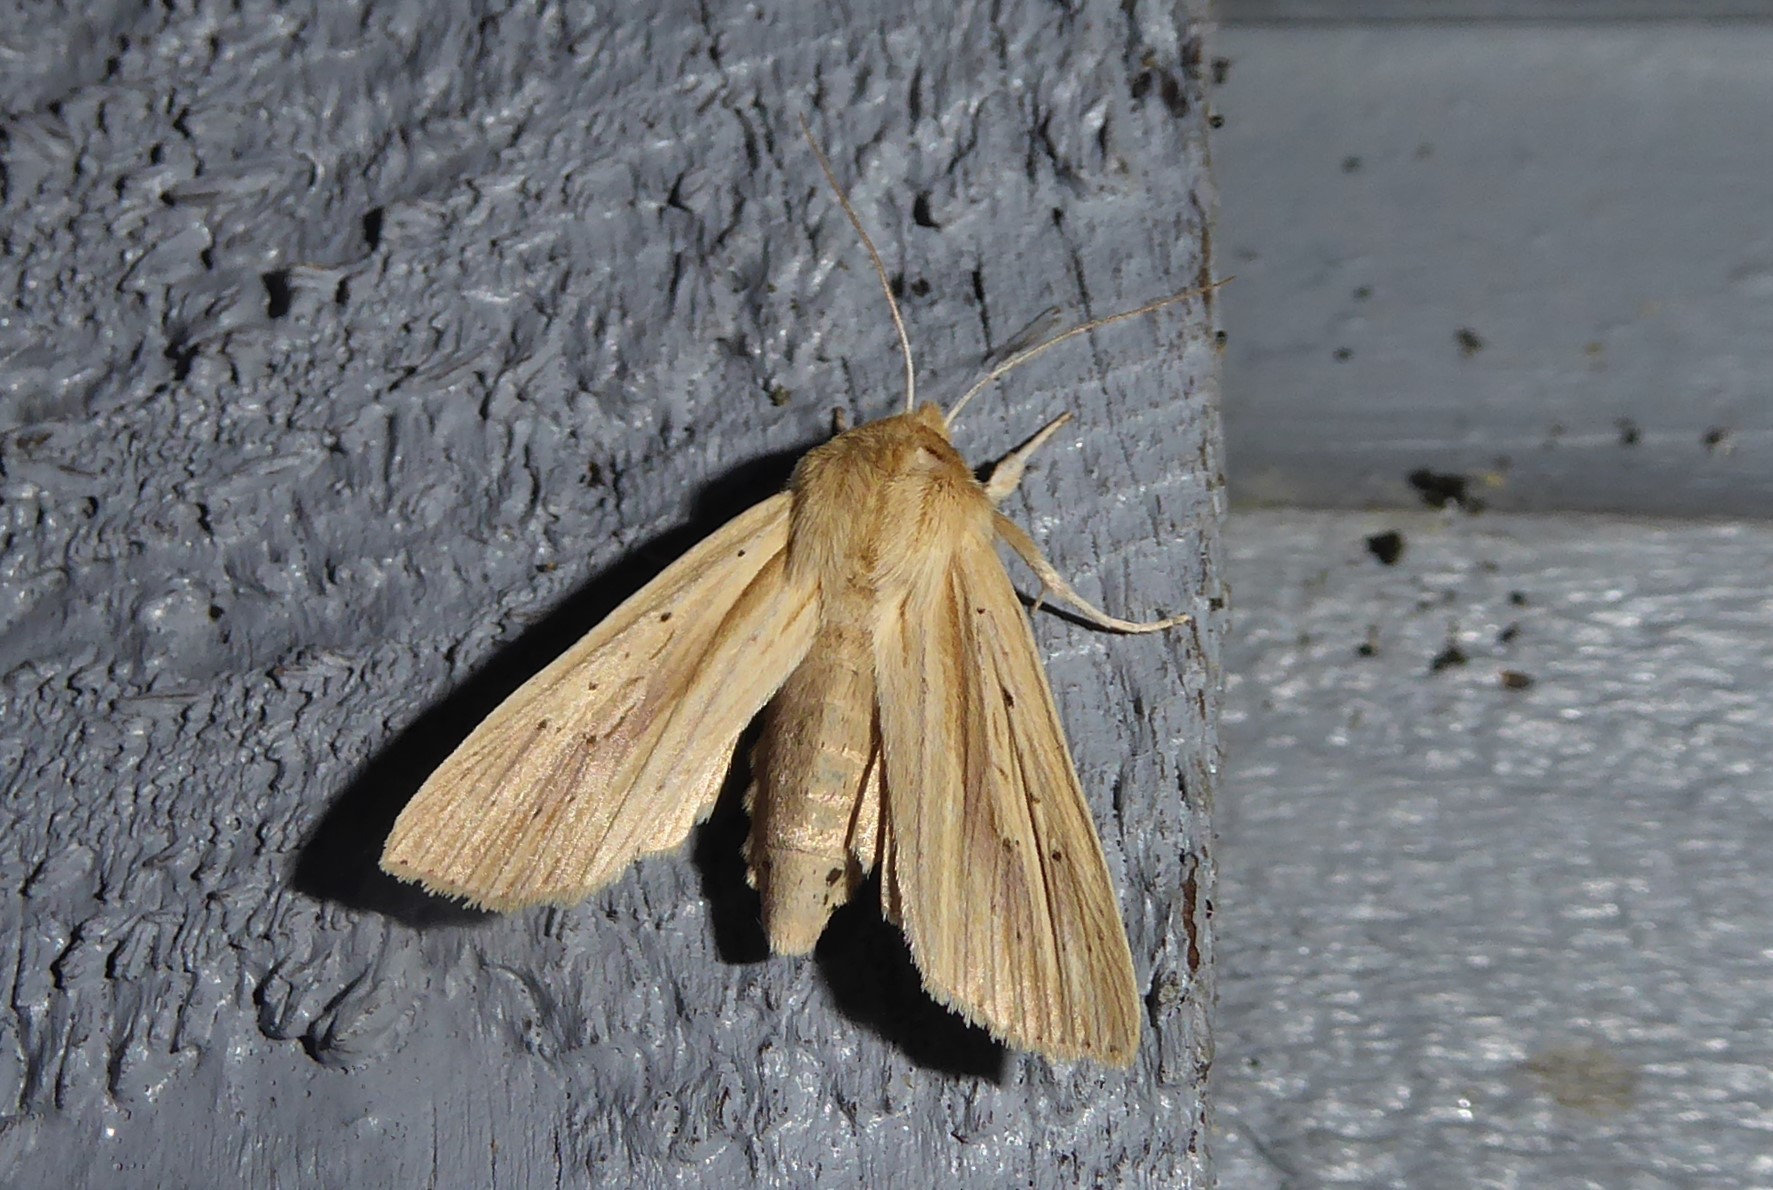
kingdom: Animalia
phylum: Arthropoda
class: Insecta
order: Lepidoptera
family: Noctuidae
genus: Ichneutica
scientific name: Ichneutica semivittata
